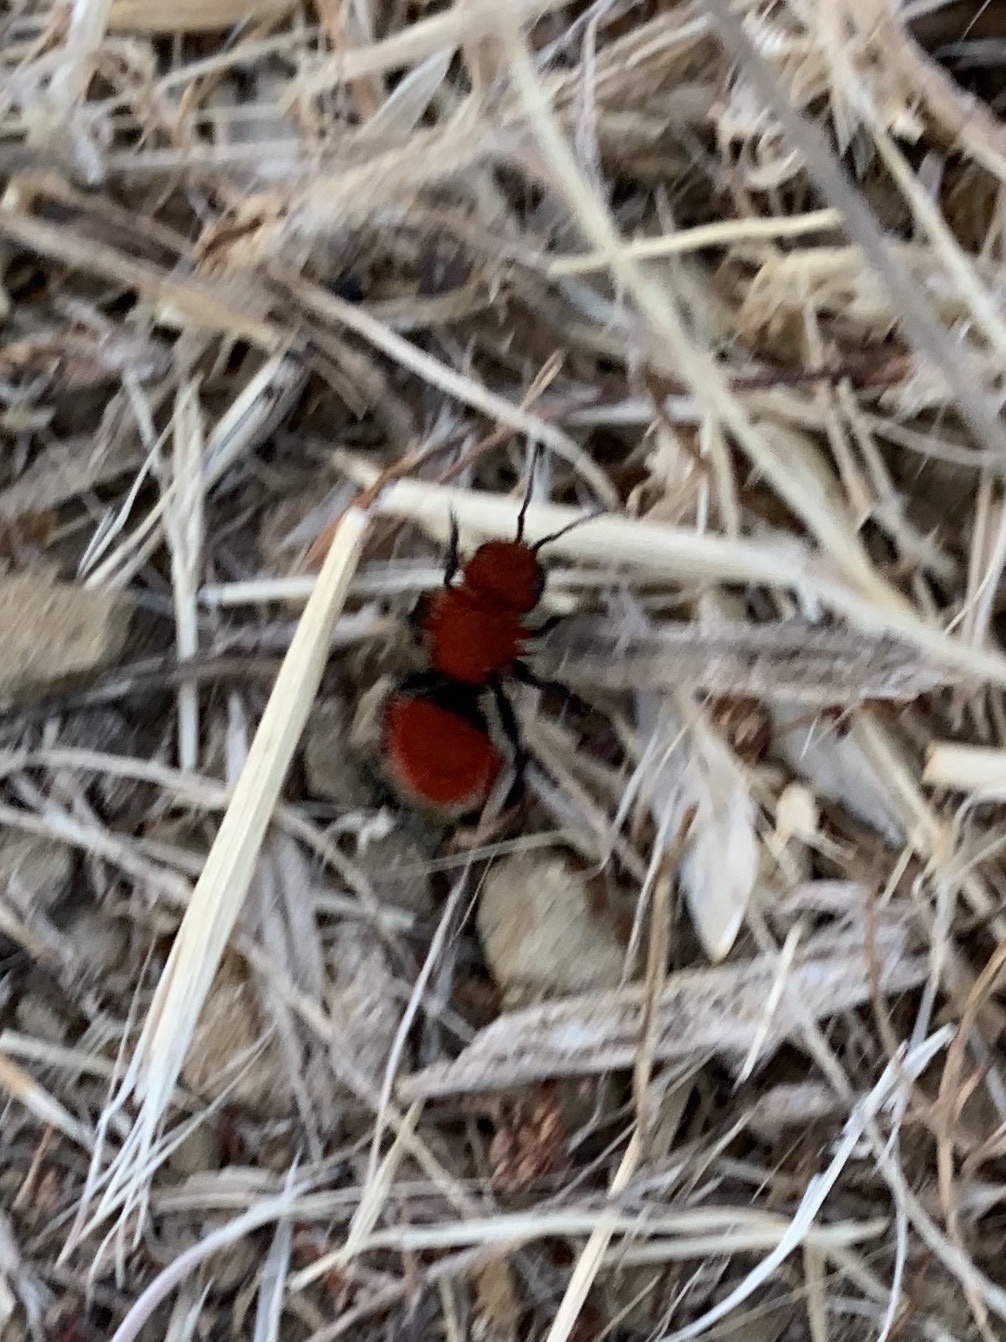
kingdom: Animalia
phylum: Arthropoda
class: Insecta
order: Hymenoptera
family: Mutillidae
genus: Dasymutilla
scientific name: Dasymutilla
